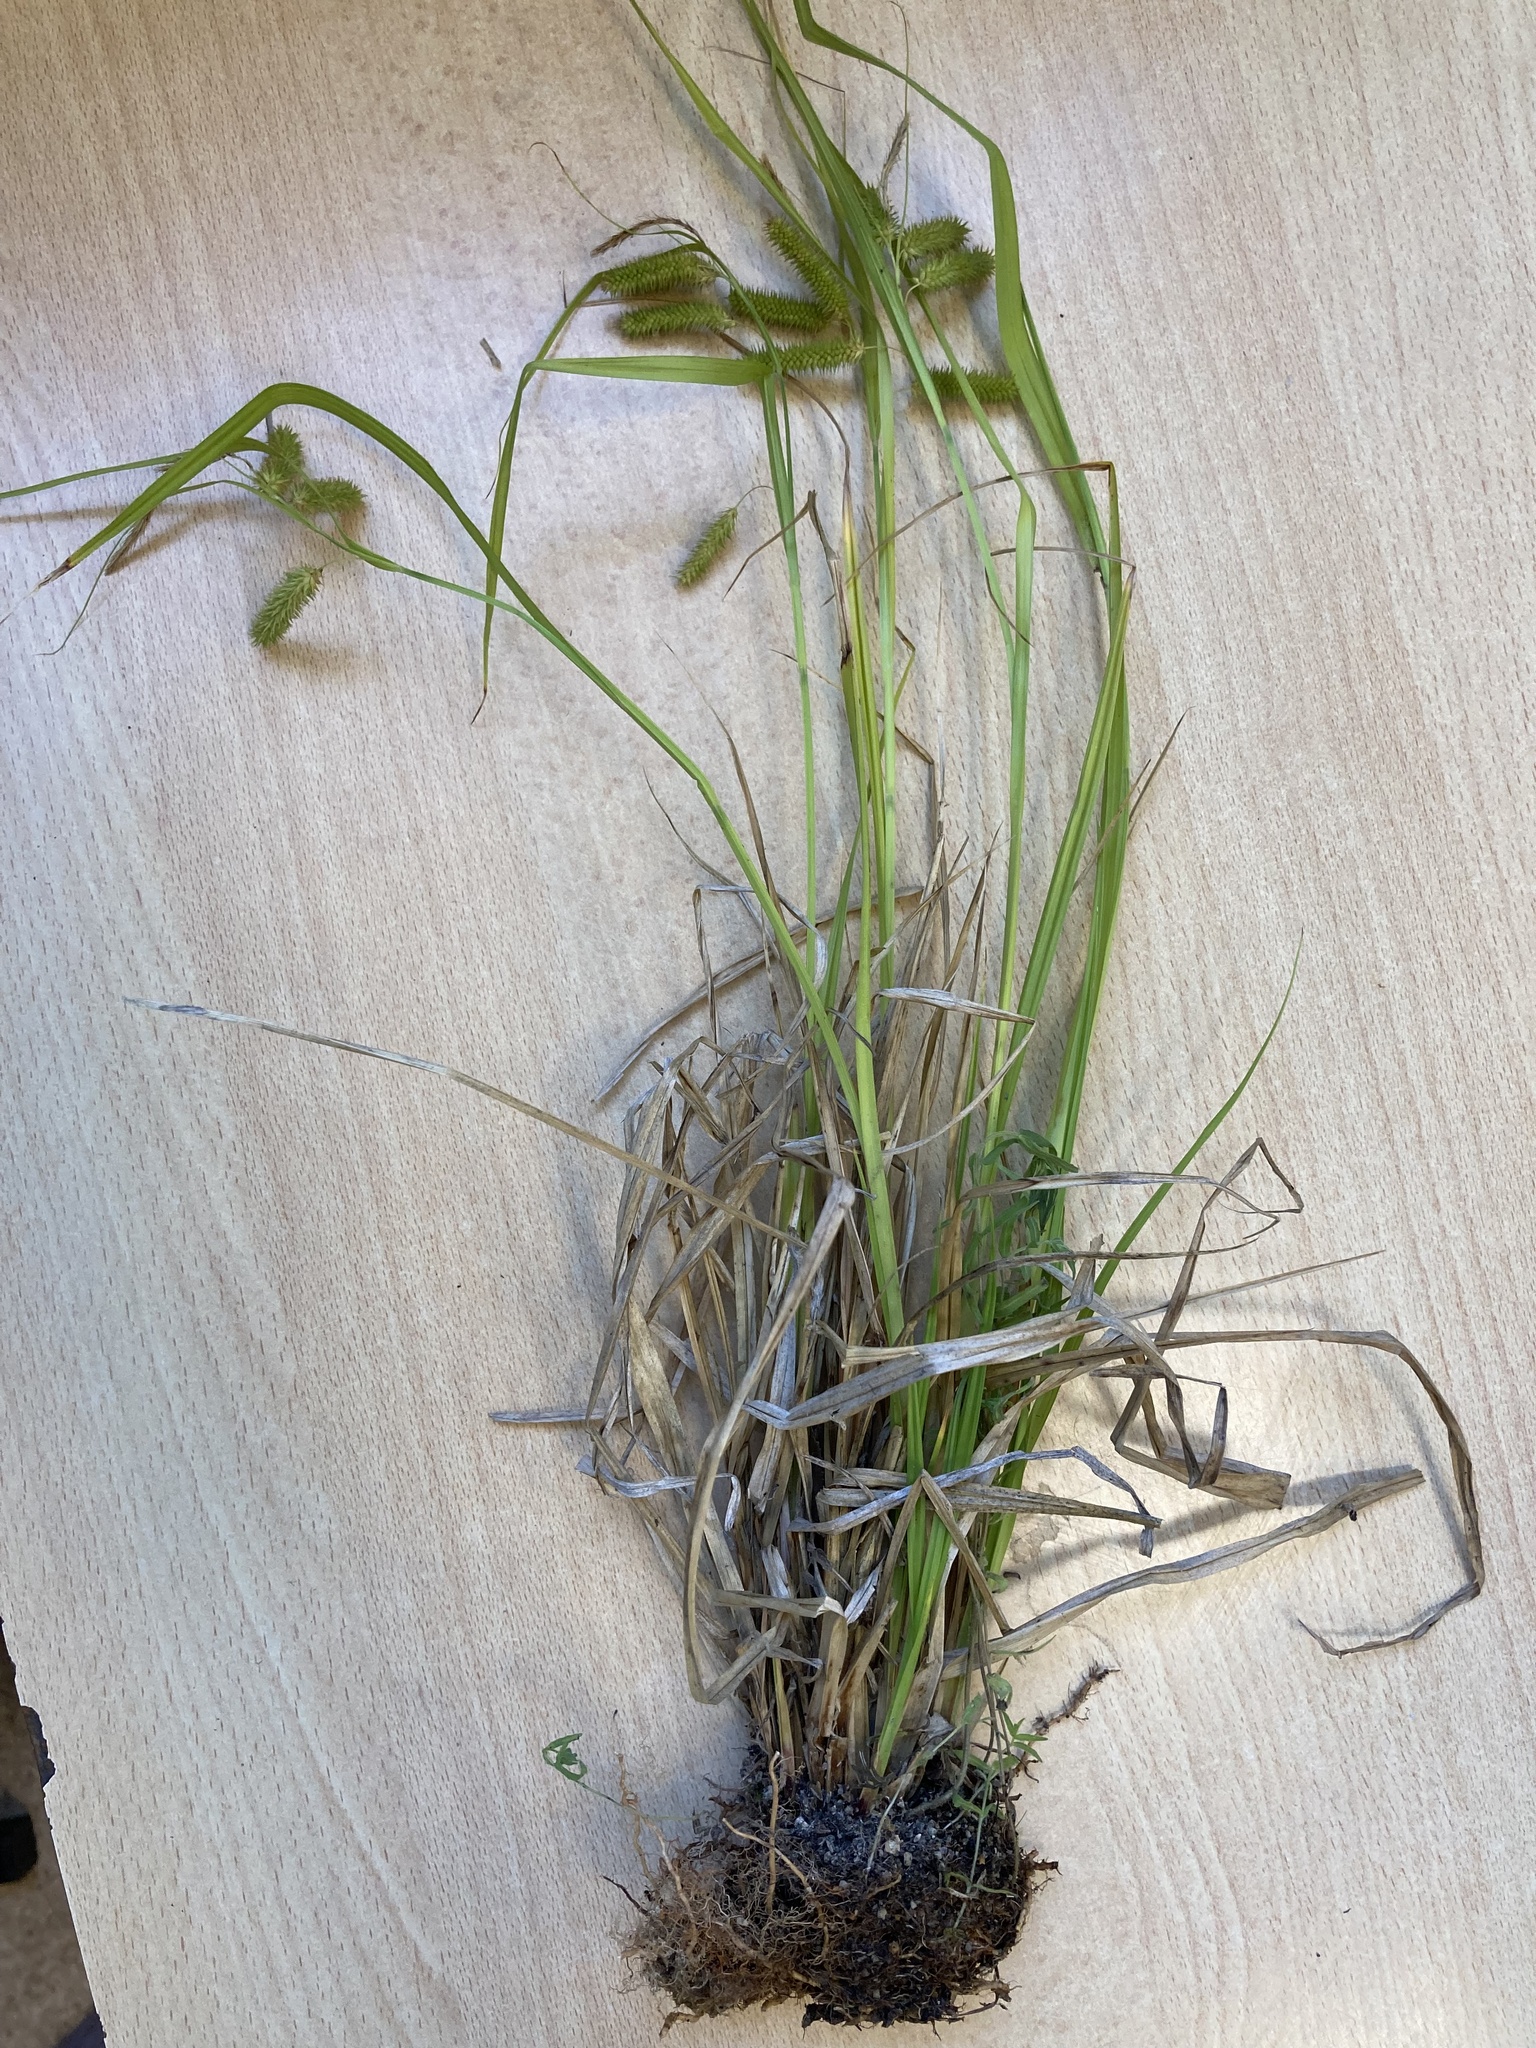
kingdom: Plantae
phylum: Tracheophyta
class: Liliopsida
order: Poales
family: Cyperaceae
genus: Carex
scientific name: Carex pseudocyperus
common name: Cyperus sedge
